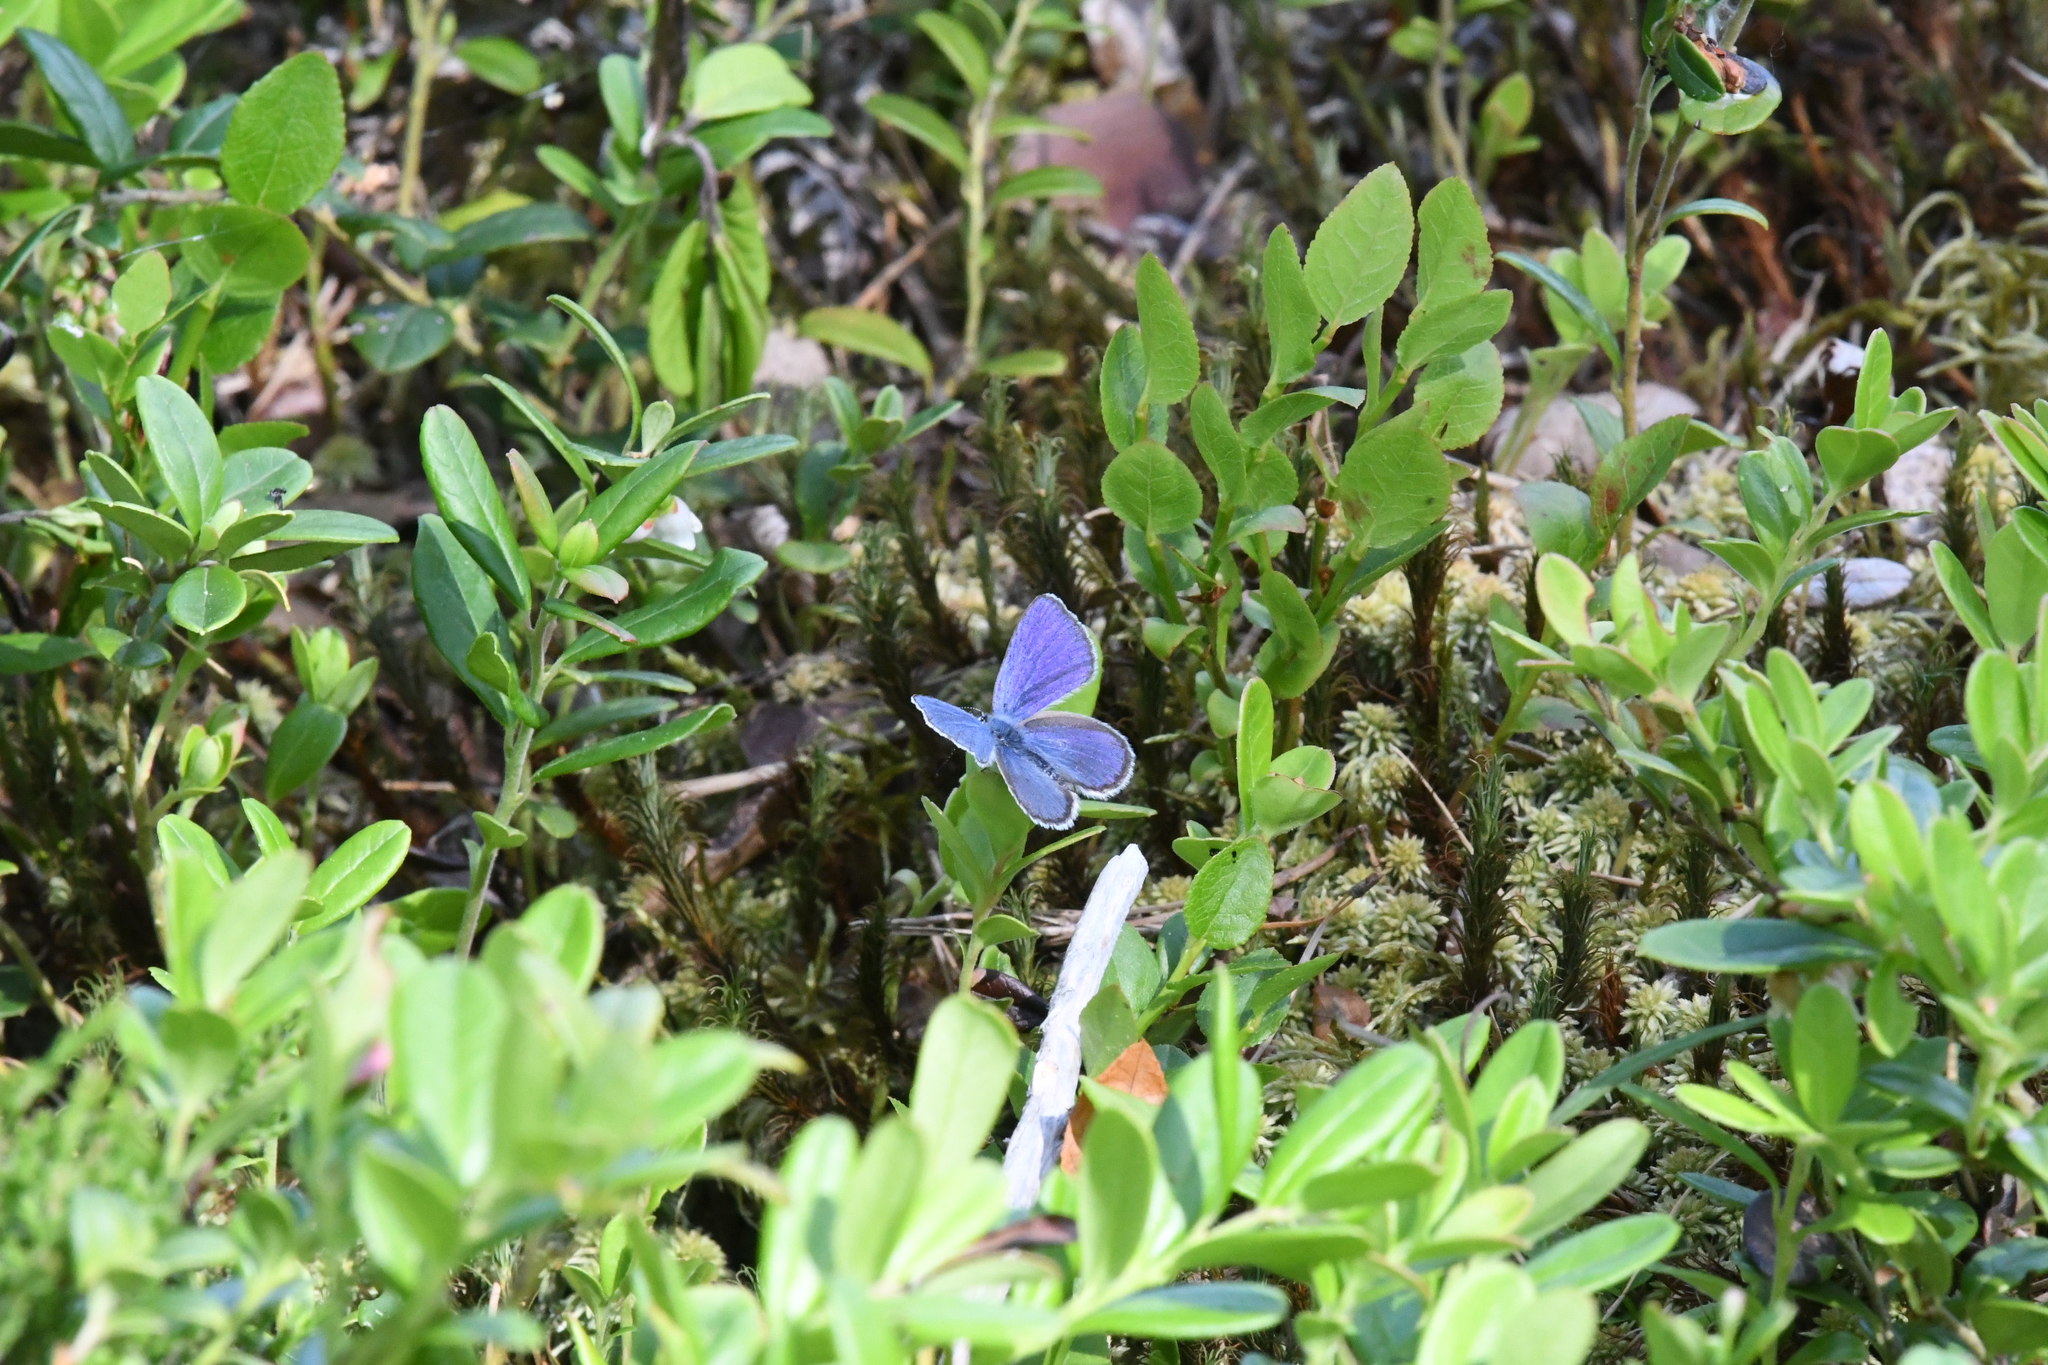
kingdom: Animalia
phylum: Arthropoda
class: Insecta
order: Lepidoptera
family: Lycaenidae
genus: Vacciniina
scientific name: Vacciniina optilete
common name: Cranberry blue
